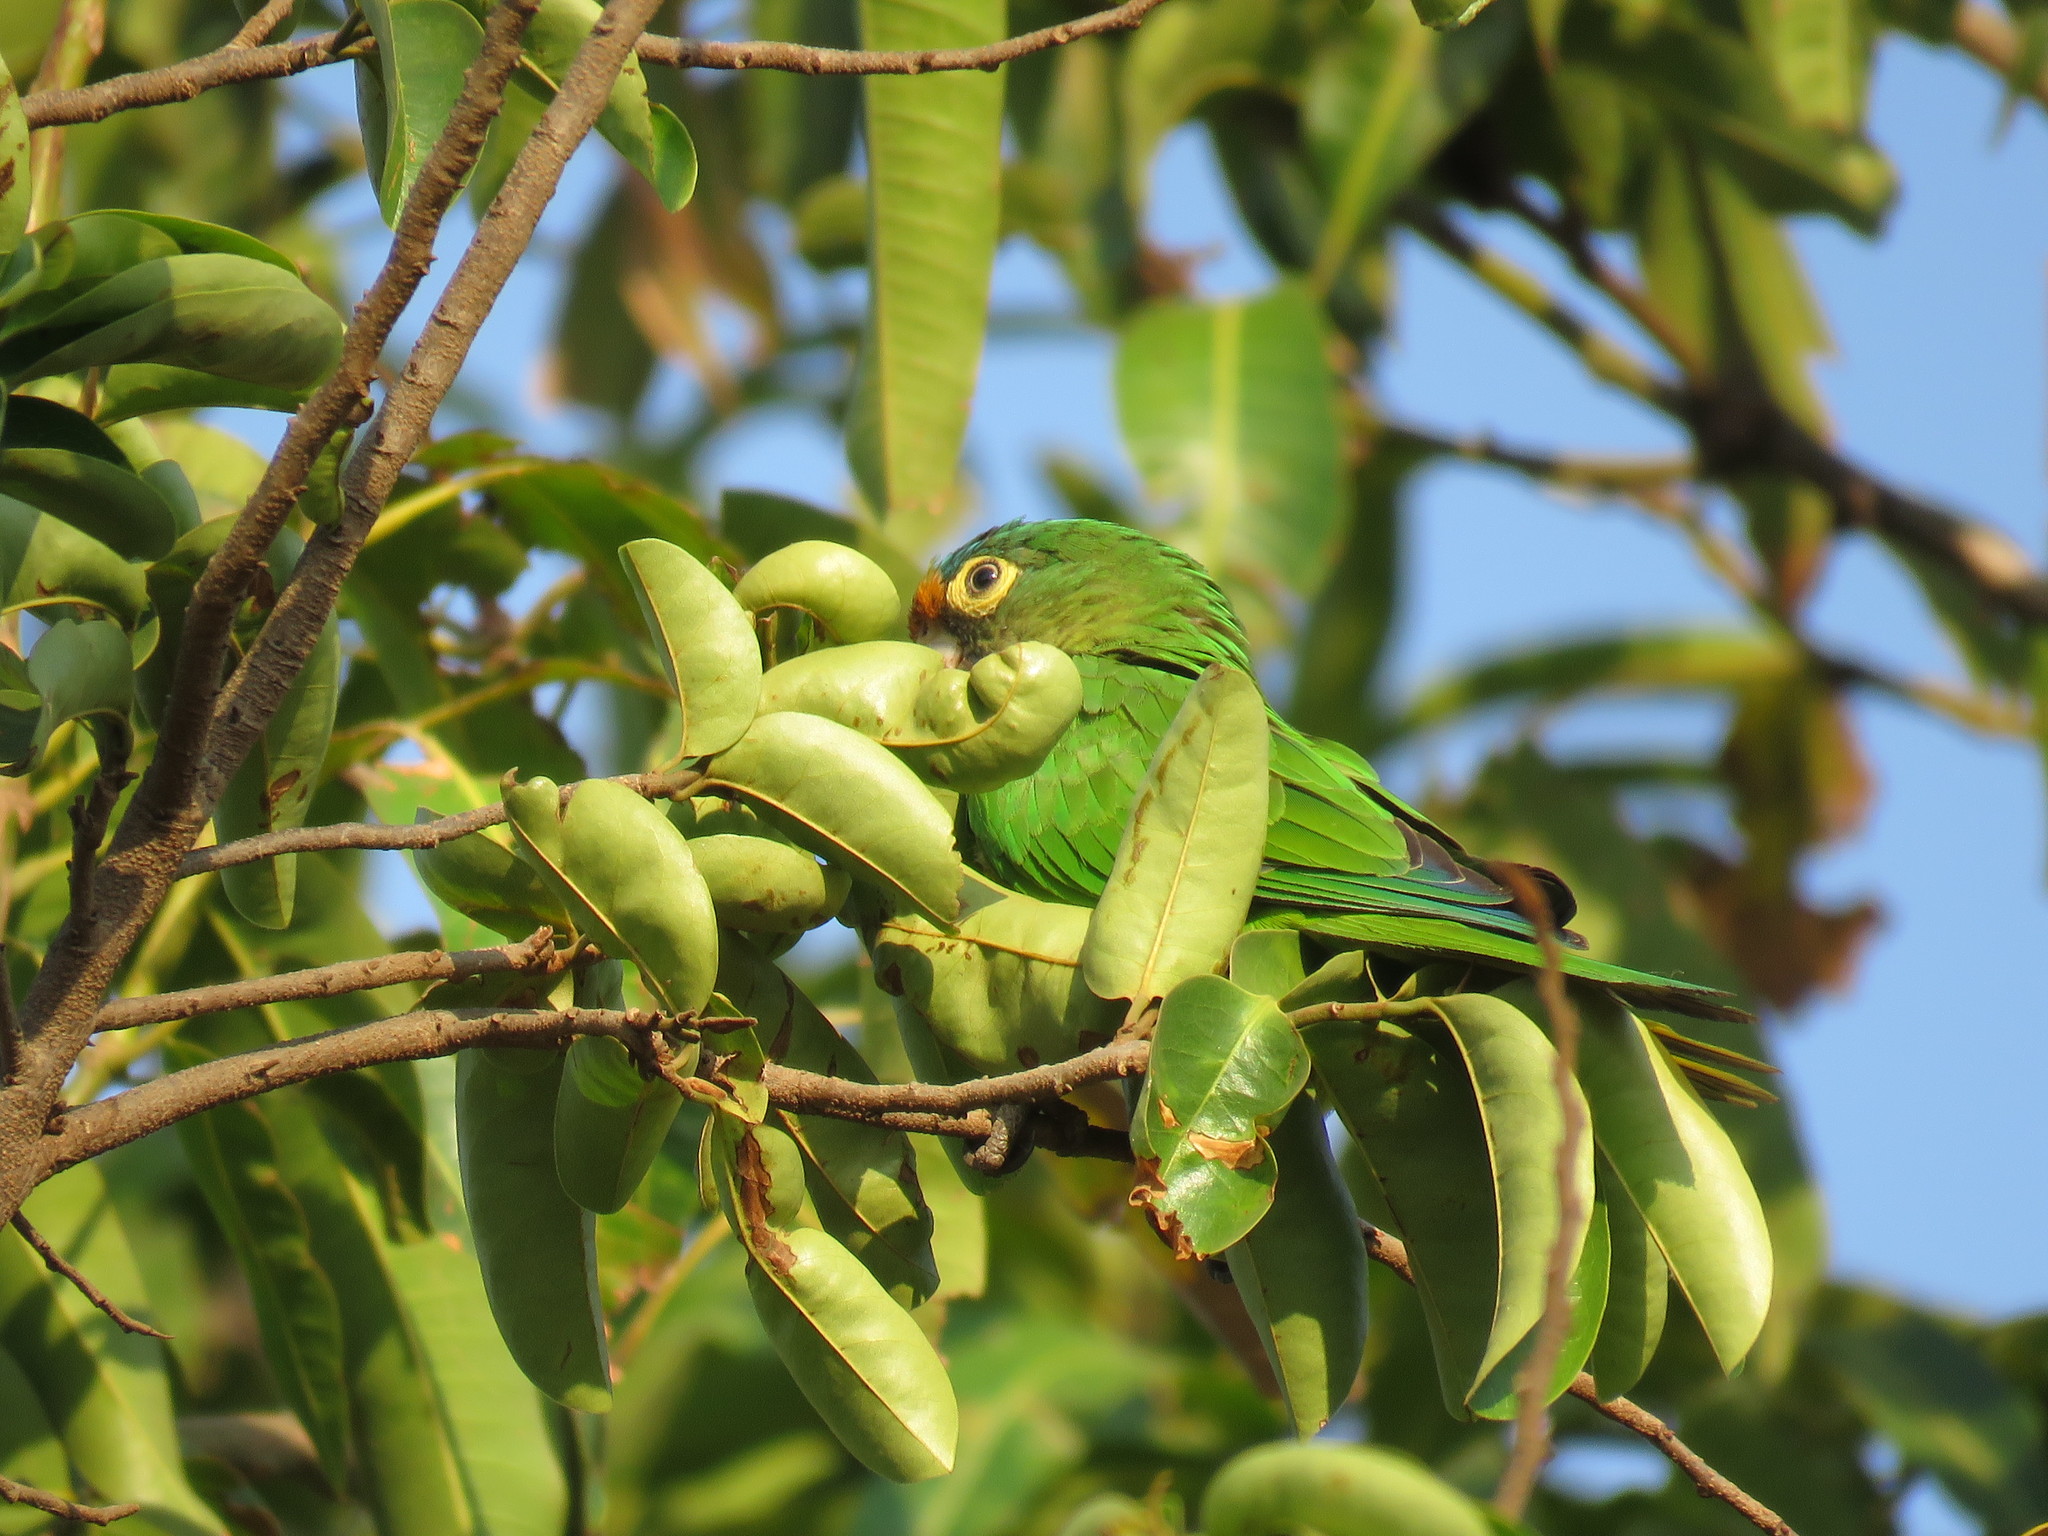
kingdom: Animalia
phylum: Chordata
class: Aves
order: Psittaciformes
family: Psittacidae
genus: Aratinga
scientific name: Aratinga canicularis
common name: Orange-fronted parakeet
